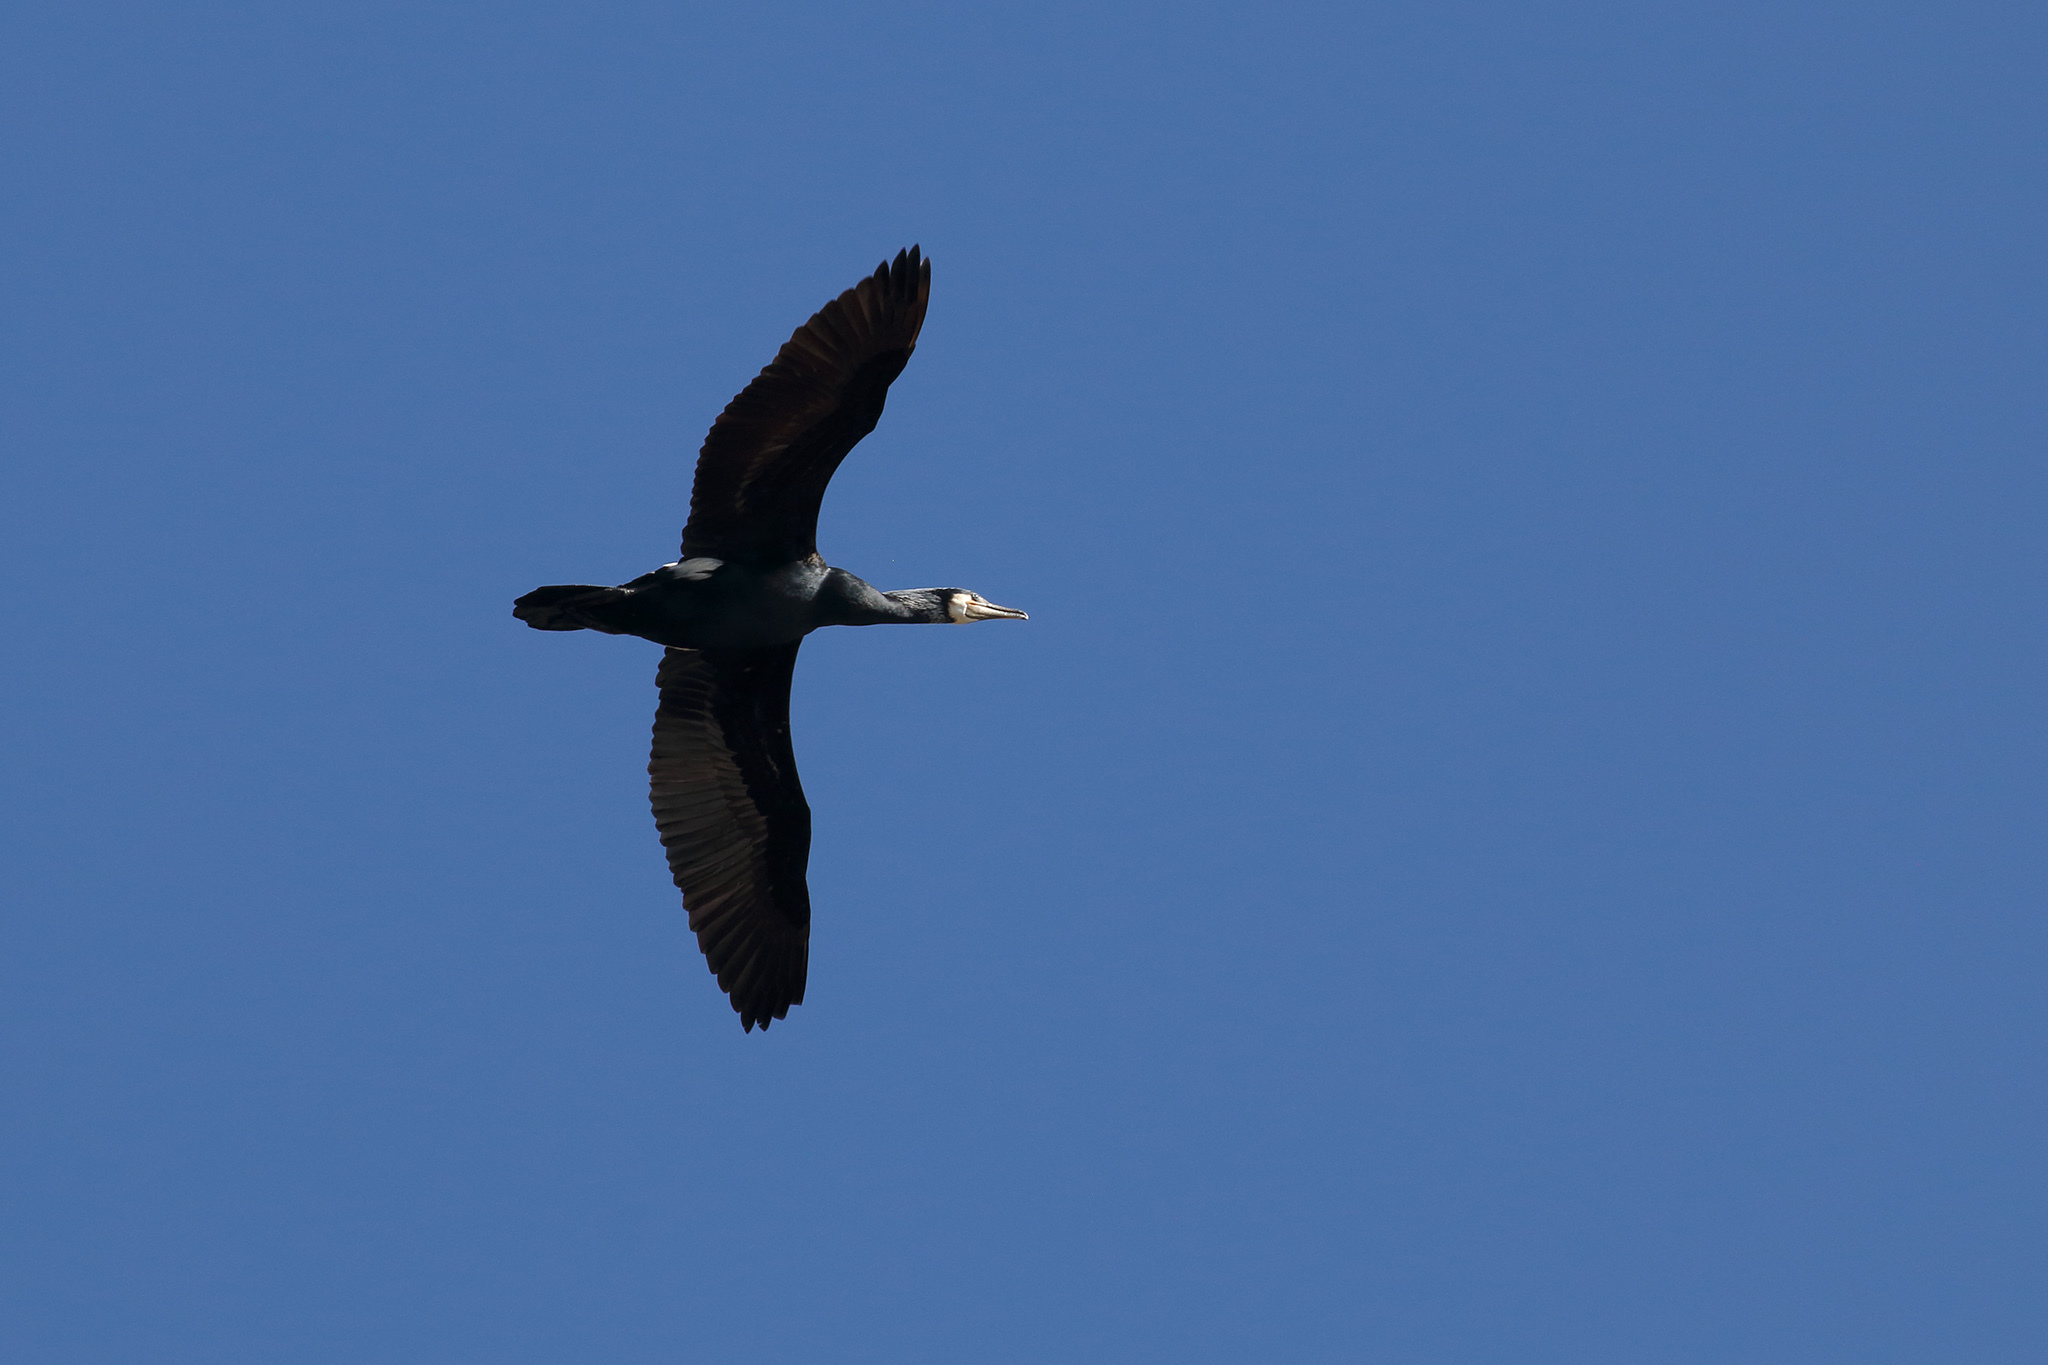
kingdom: Animalia
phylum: Chordata
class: Aves
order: Suliformes
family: Phalacrocoracidae
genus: Phalacrocorax
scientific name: Phalacrocorax carbo
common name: Great cormorant
